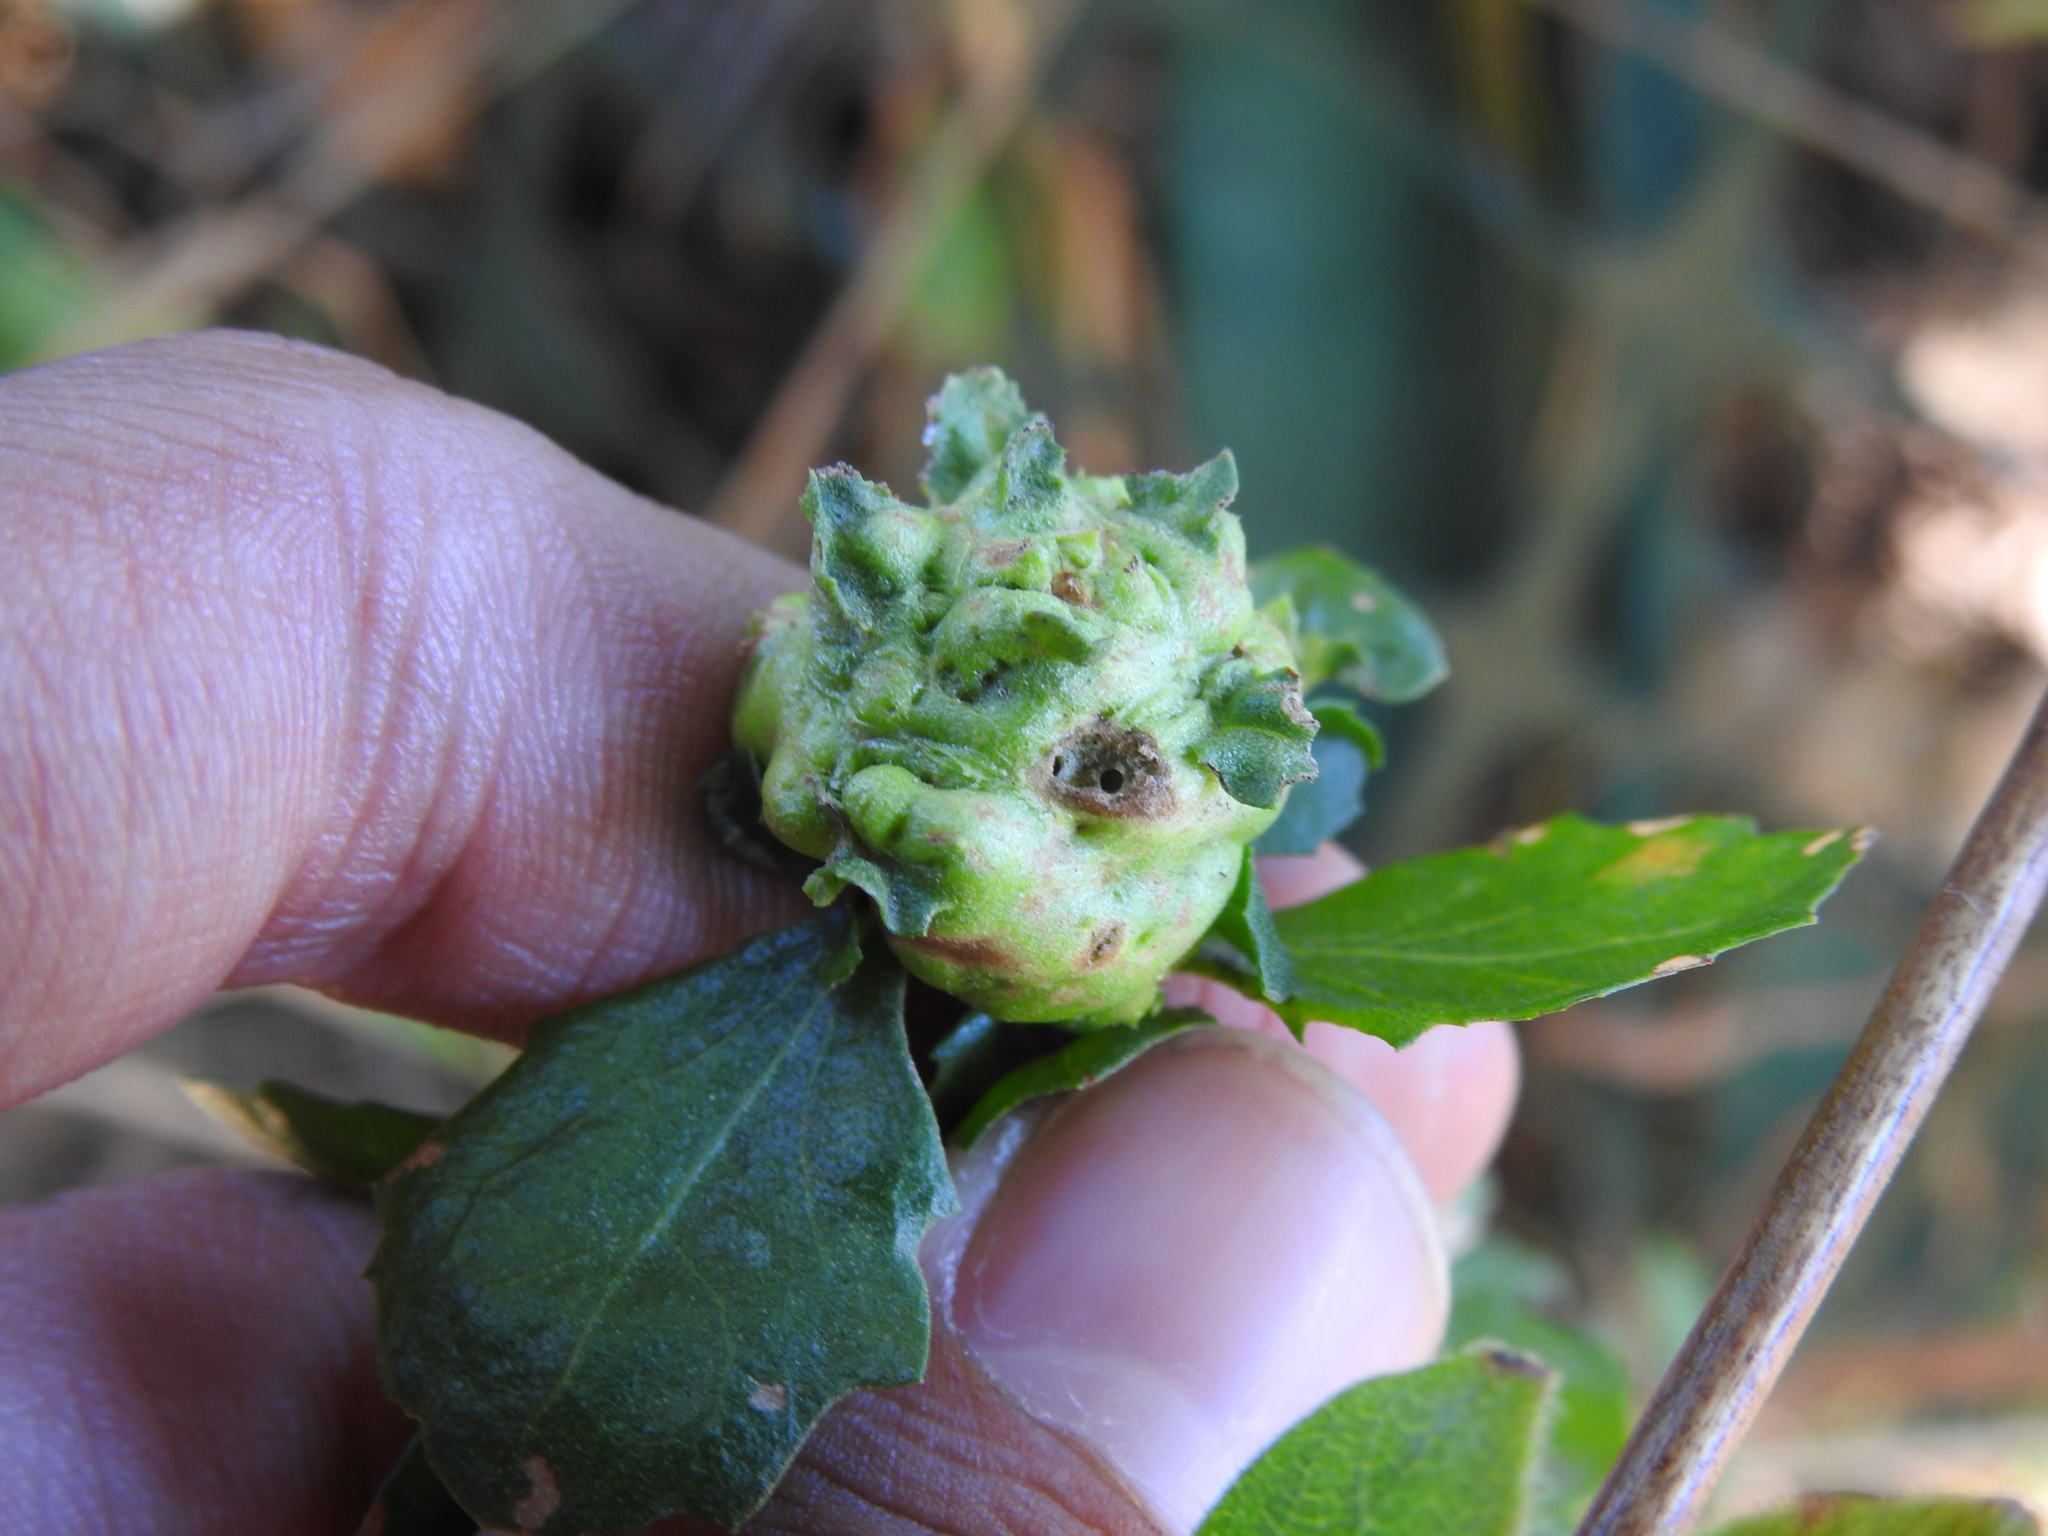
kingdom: Animalia
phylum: Arthropoda
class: Insecta
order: Diptera
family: Cecidomyiidae
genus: Rhopalomyia
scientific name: Rhopalomyia californica
